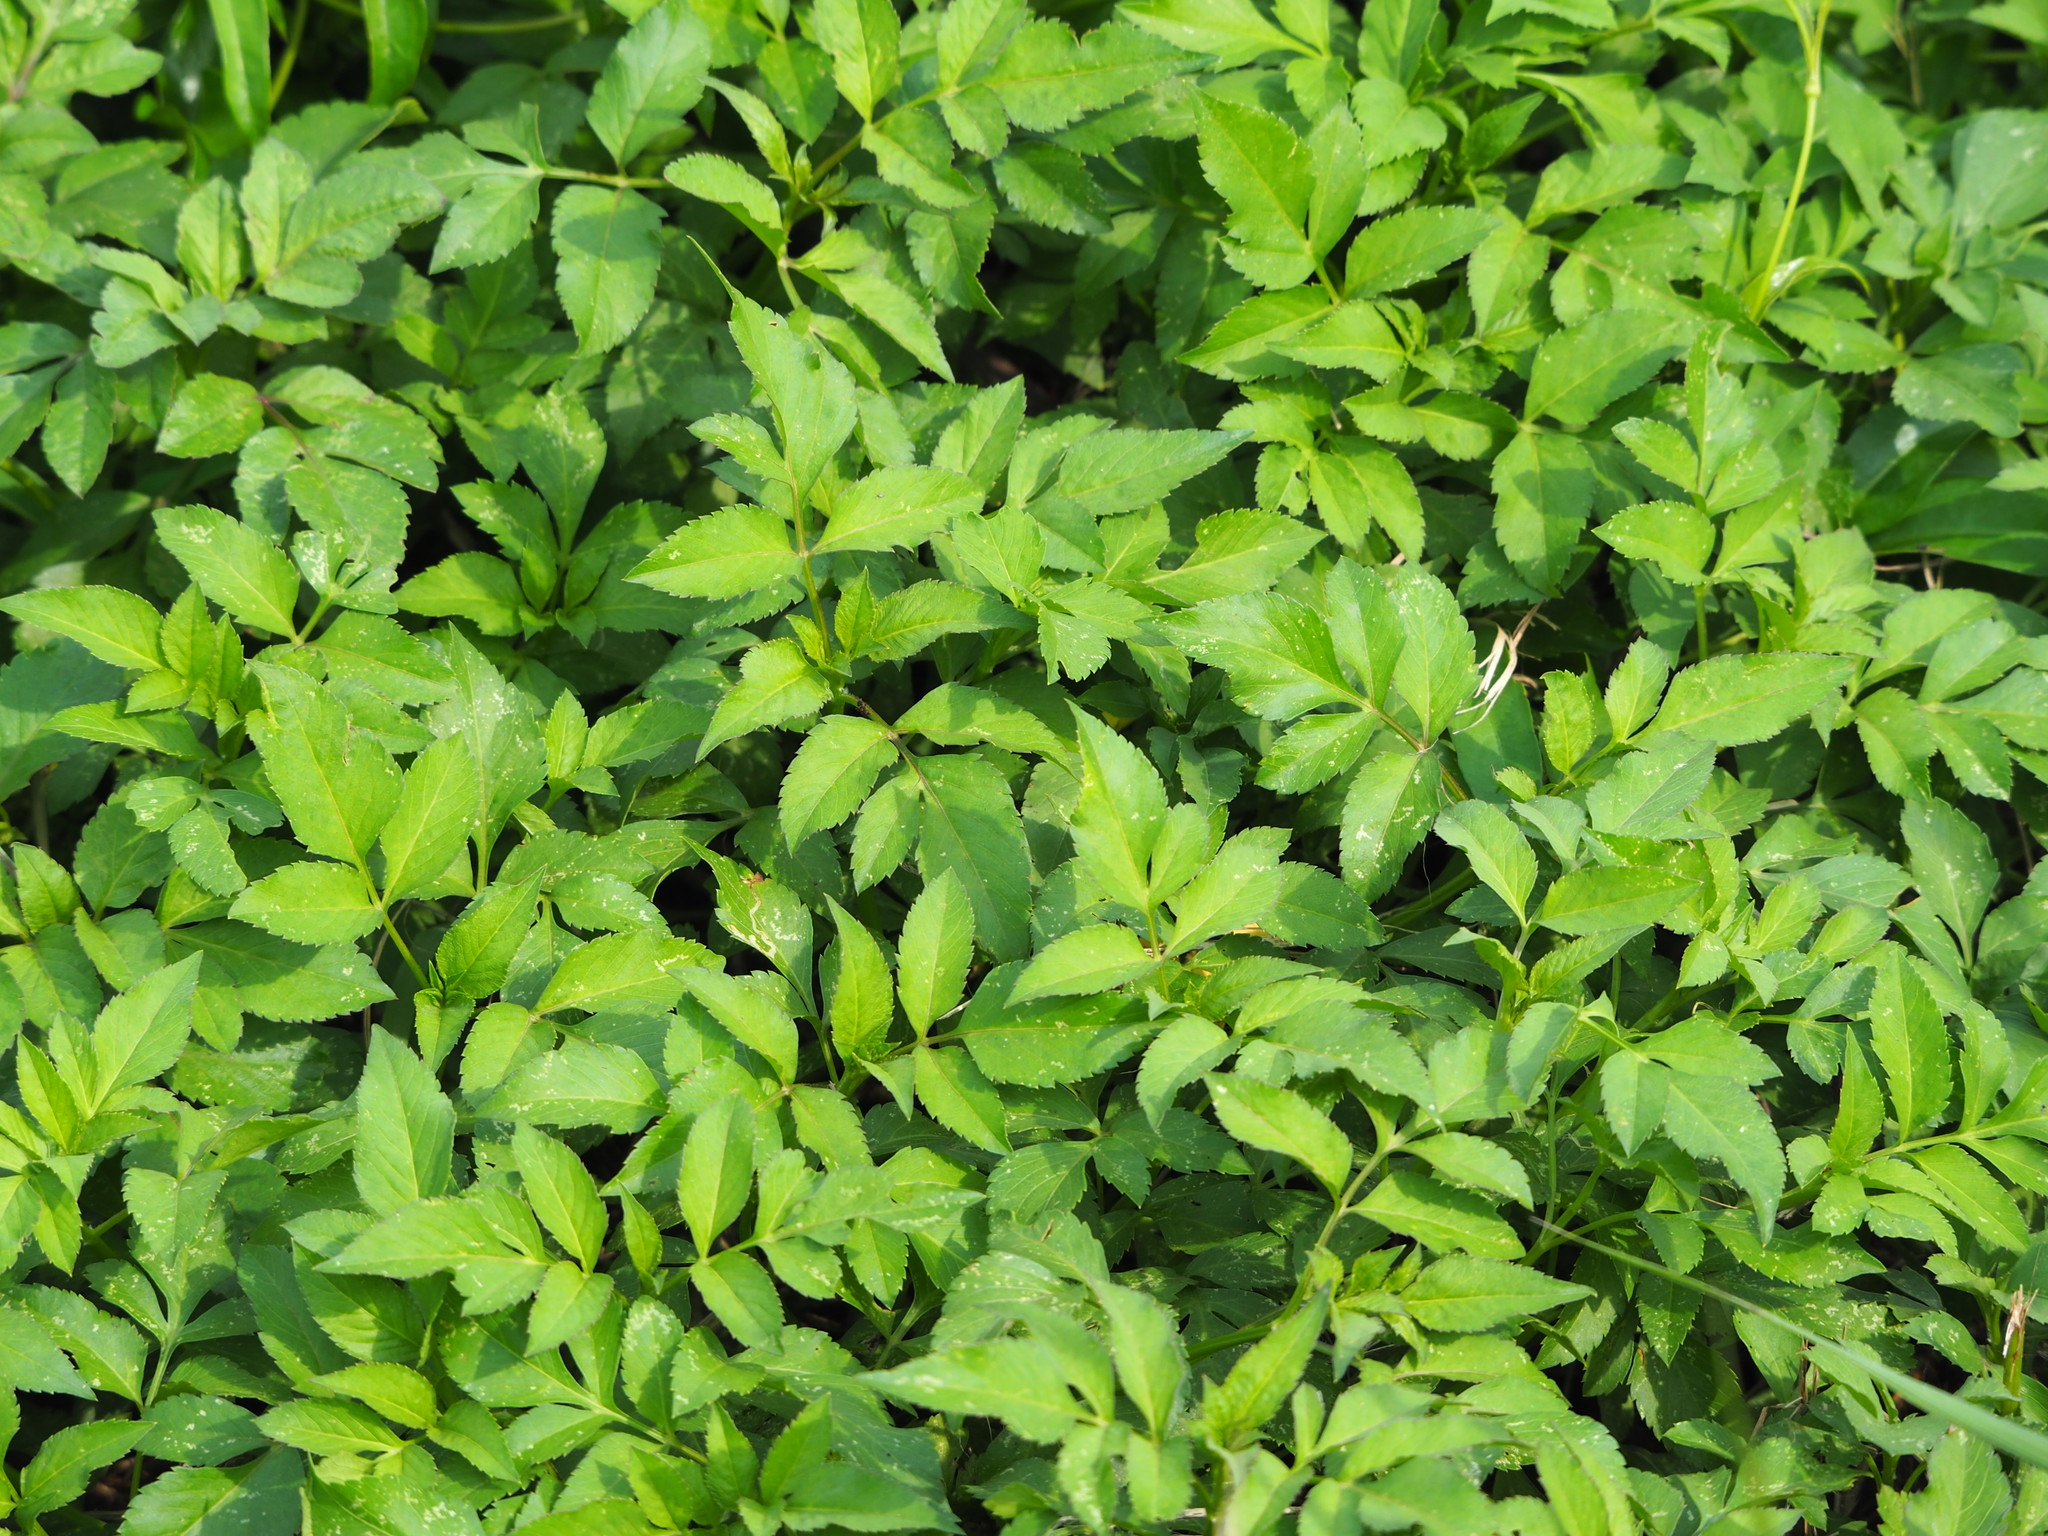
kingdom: Plantae
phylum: Tracheophyta
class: Magnoliopsida
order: Asterales
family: Asteraceae
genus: Bidens
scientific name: Bidens alba
